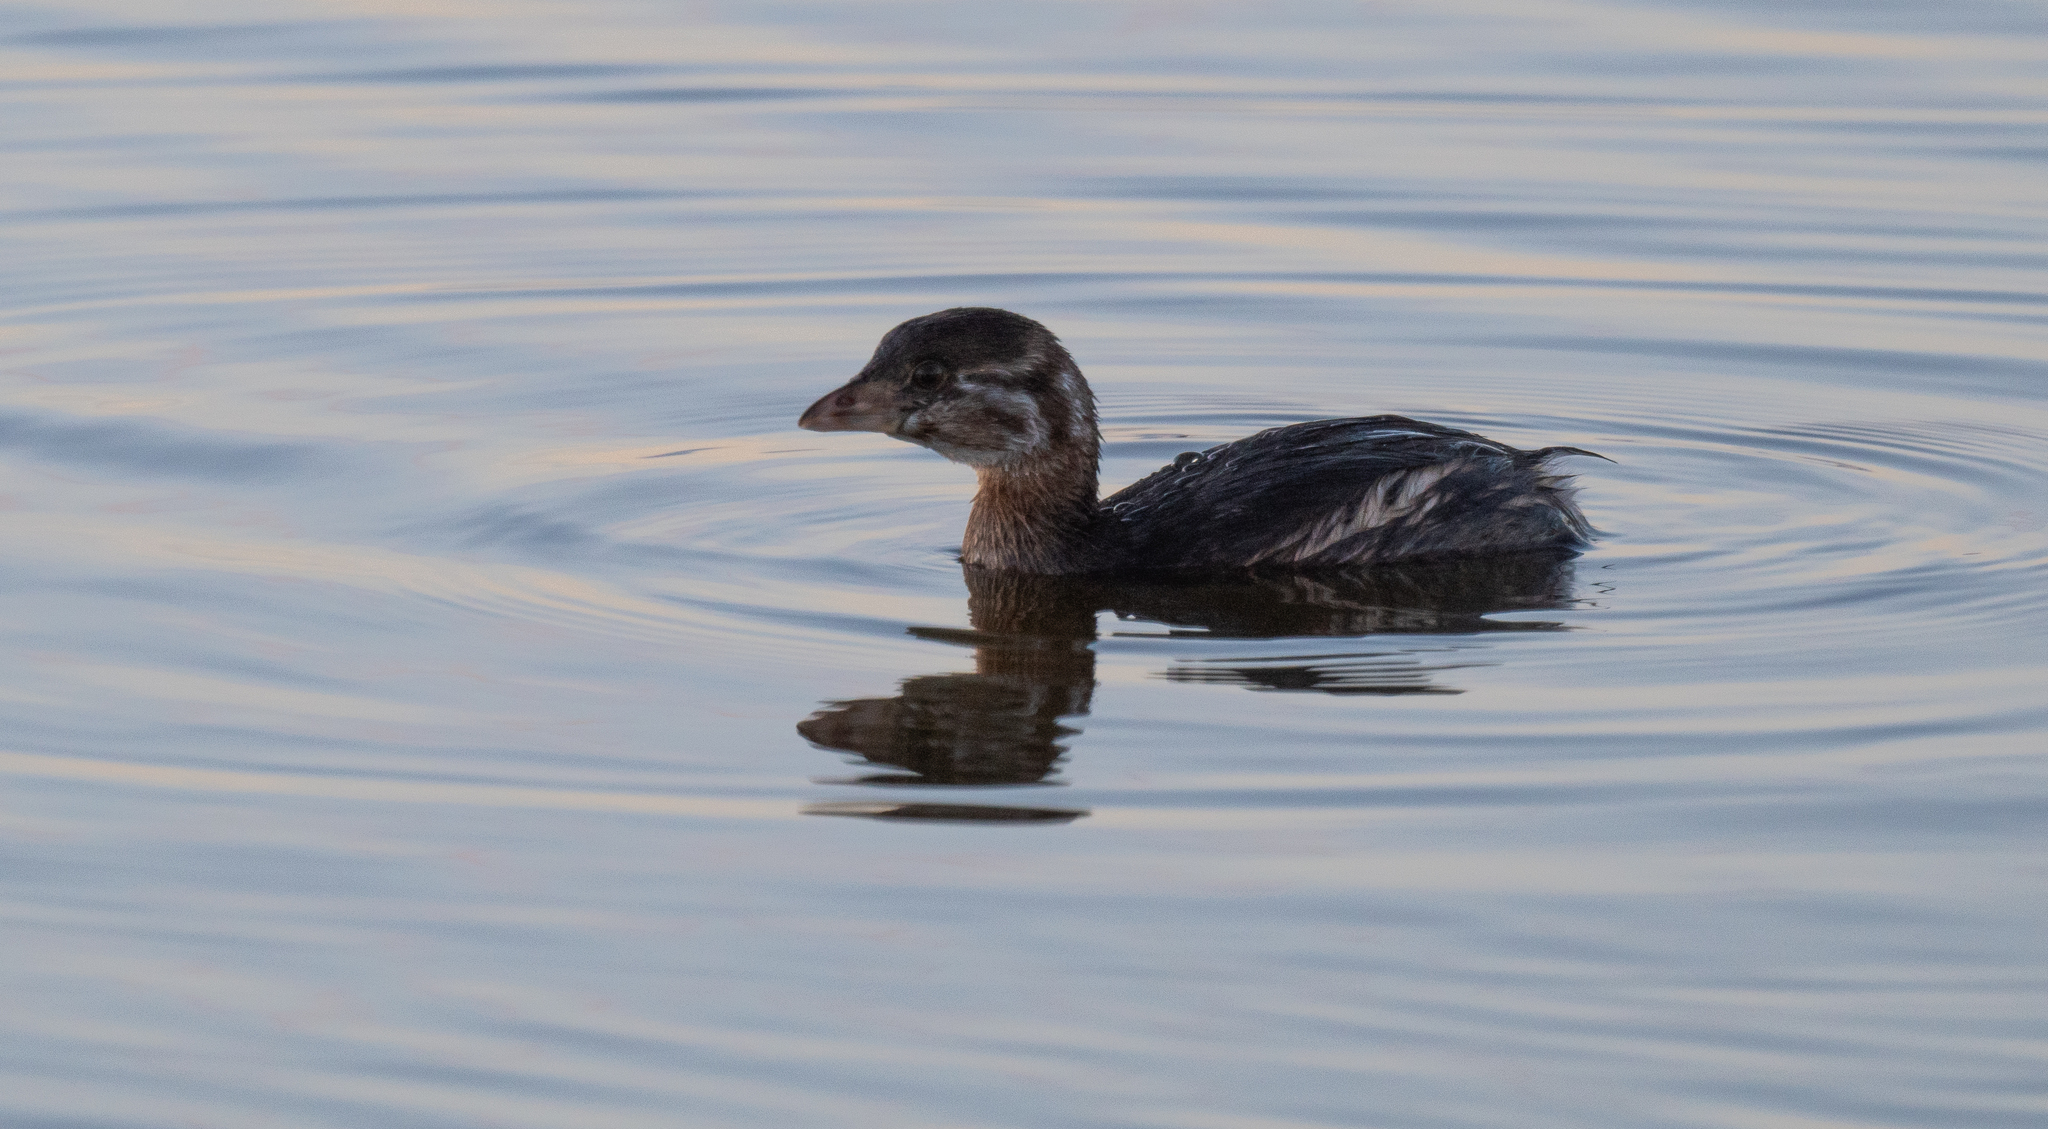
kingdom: Animalia
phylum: Chordata
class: Aves
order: Podicipediformes
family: Podicipedidae
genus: Podilymbus
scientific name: Podilymbus podiceps
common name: Pied-billed grebe
